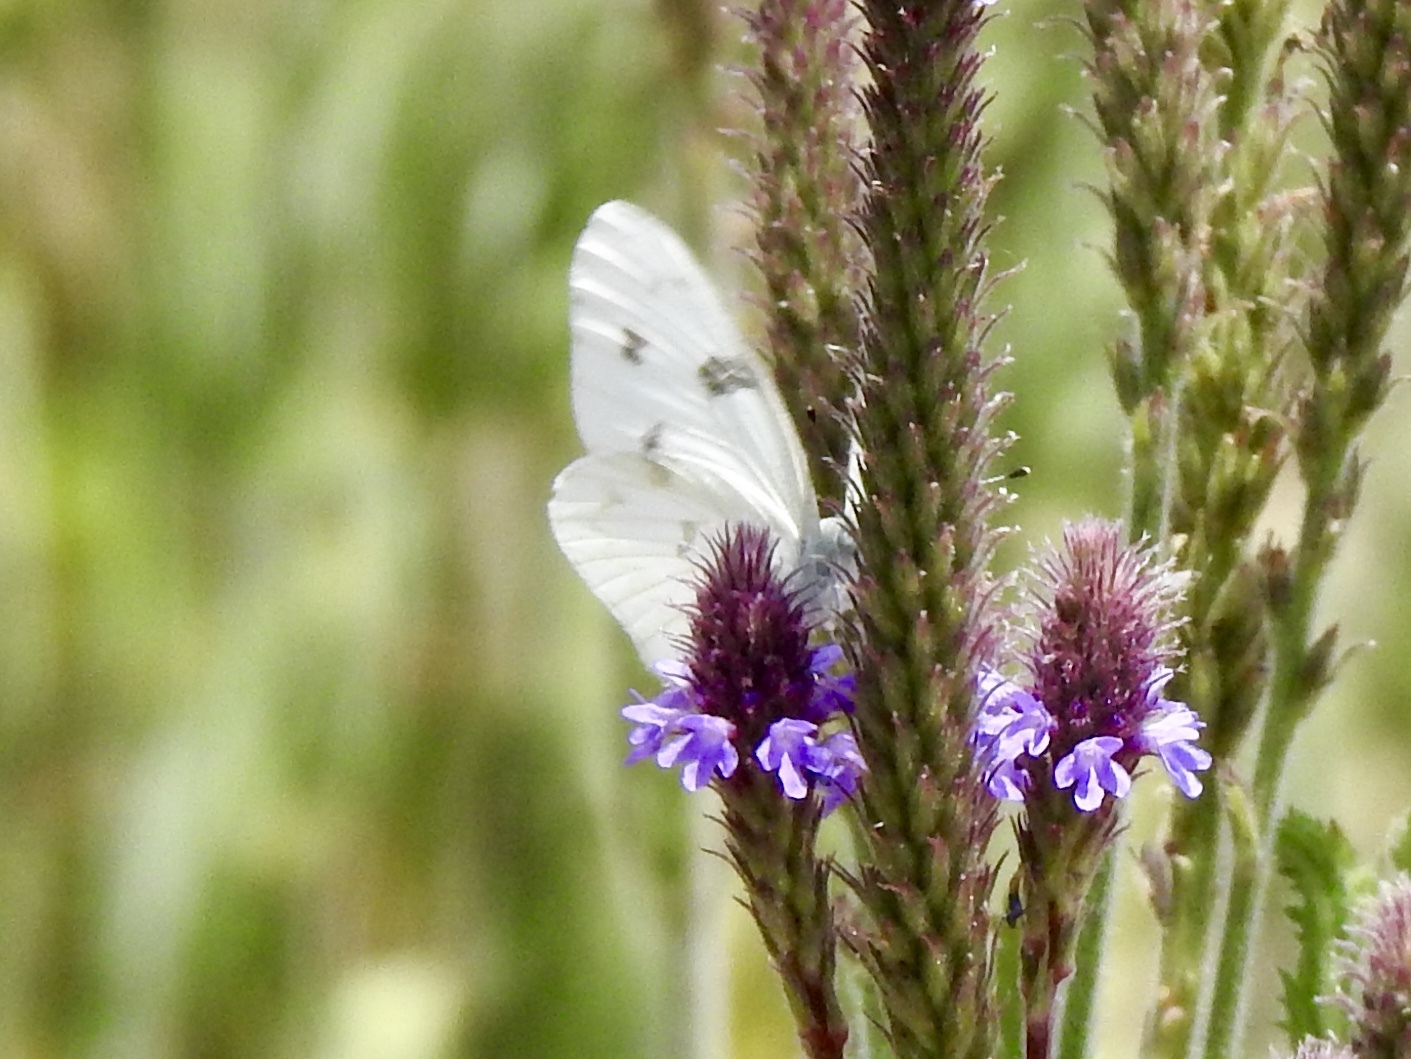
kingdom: Animalia
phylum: Arthropoda
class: Insecta
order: Lepidoptera
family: Pieridae
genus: Pontia
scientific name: Pontia protodice
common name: Checkered white
